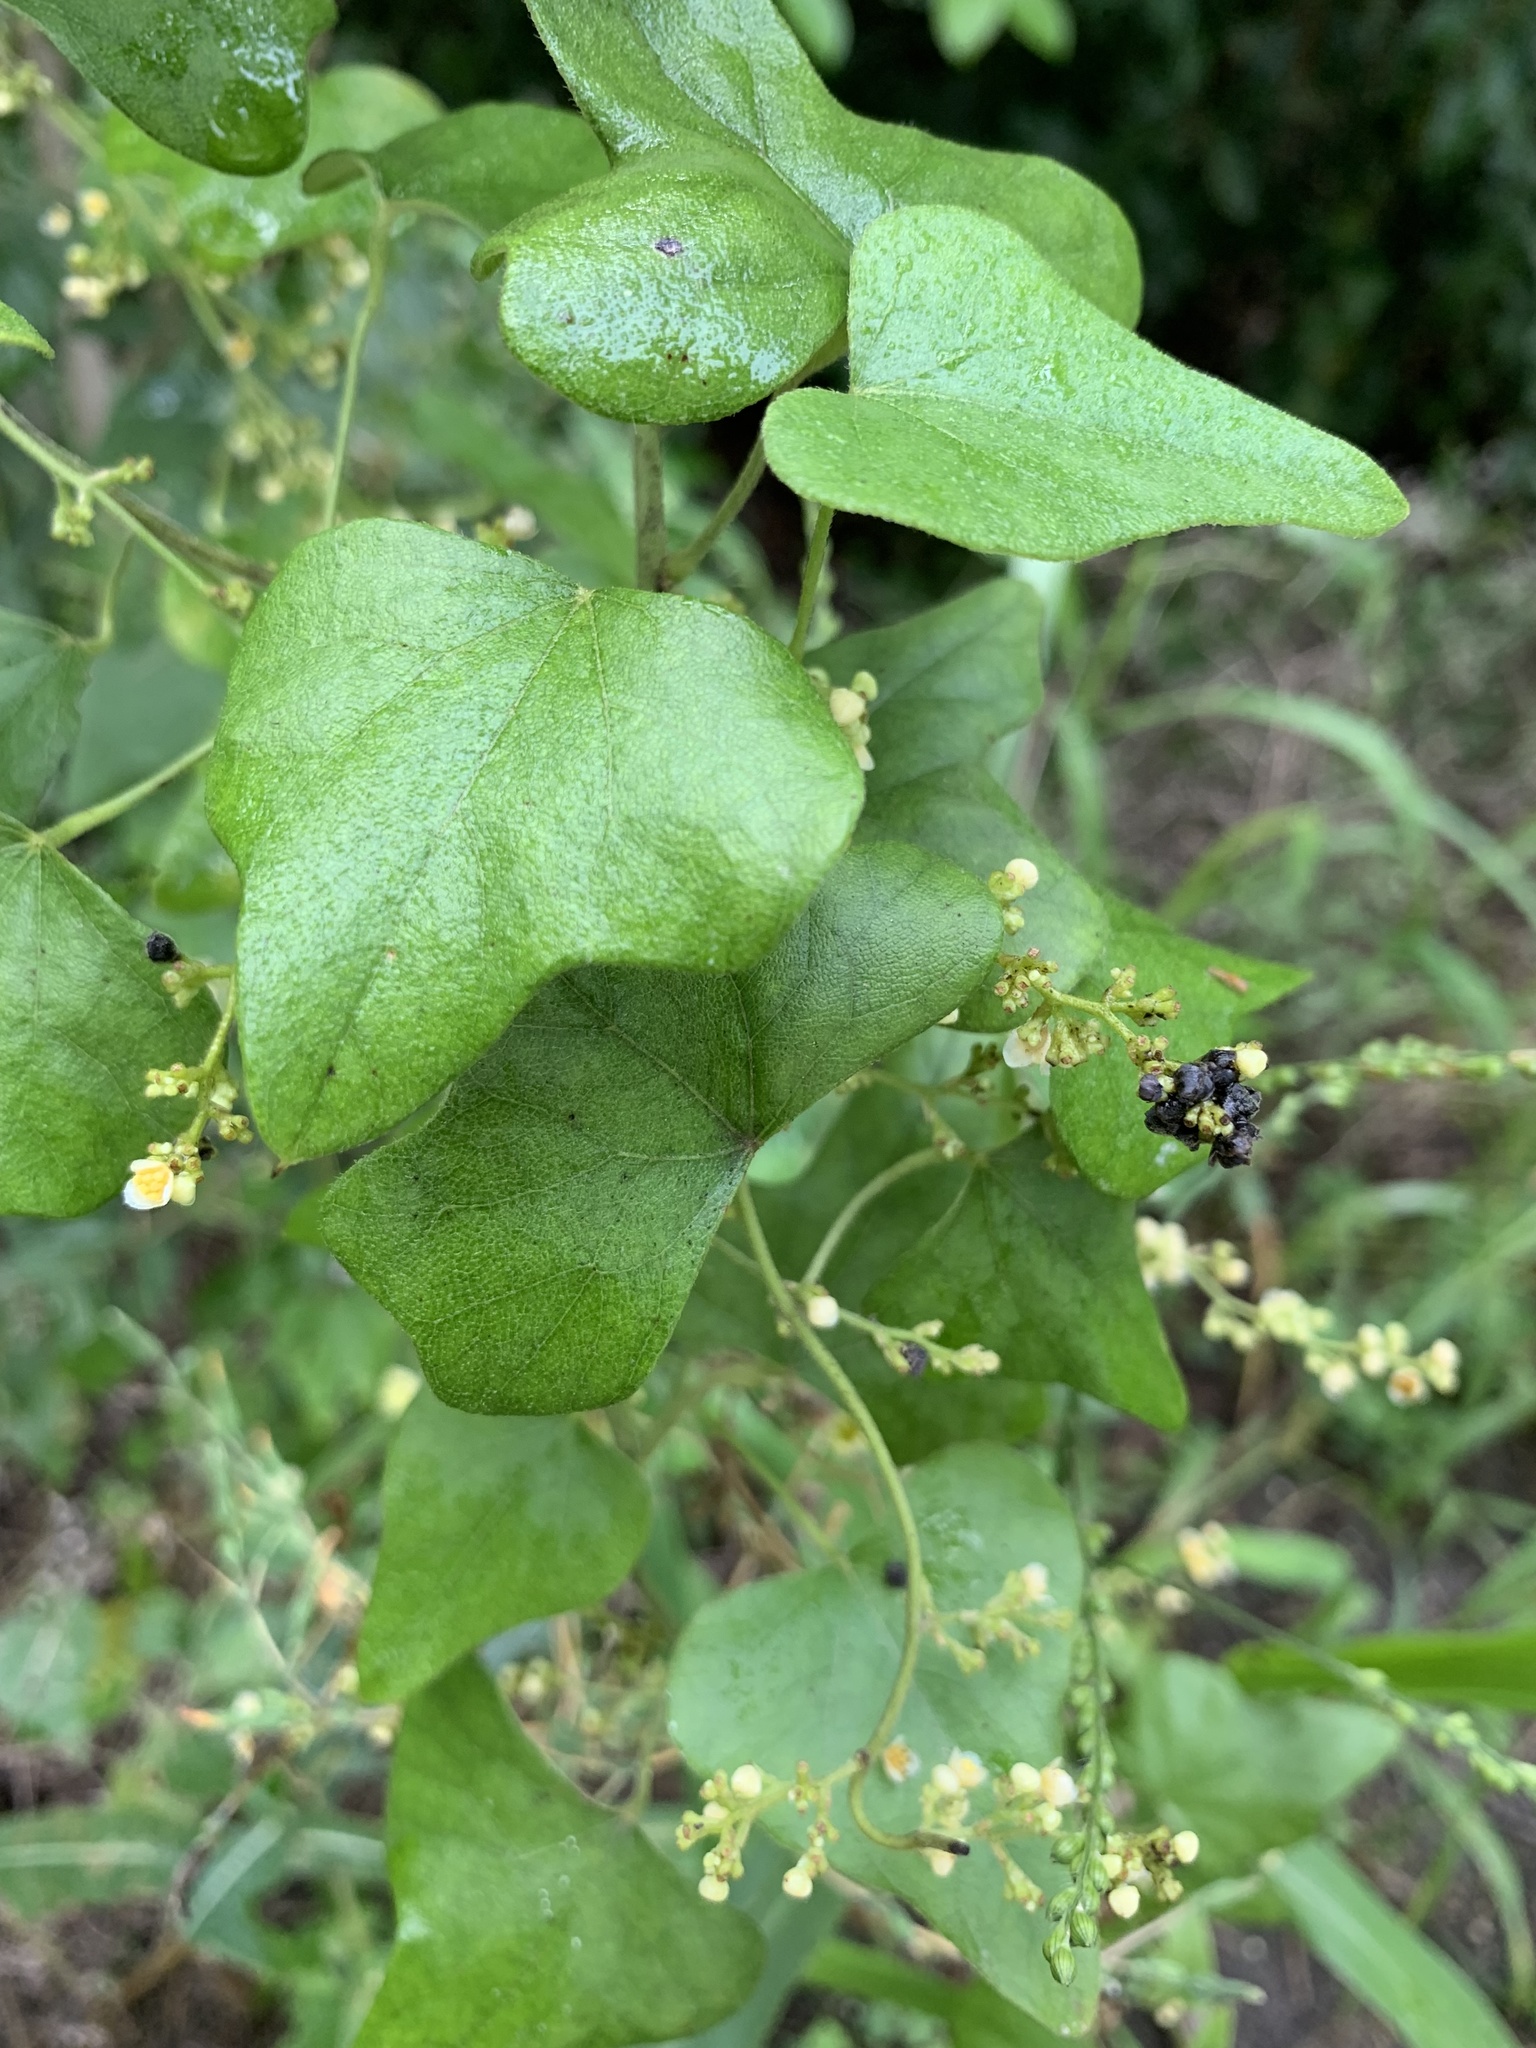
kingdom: Plantae
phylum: Tracheophyta
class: Magnoliopsida
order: Ranunculales
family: Menispermaceae
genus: Cocculus
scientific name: Cocculus carolinus
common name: Carolina moonseed
